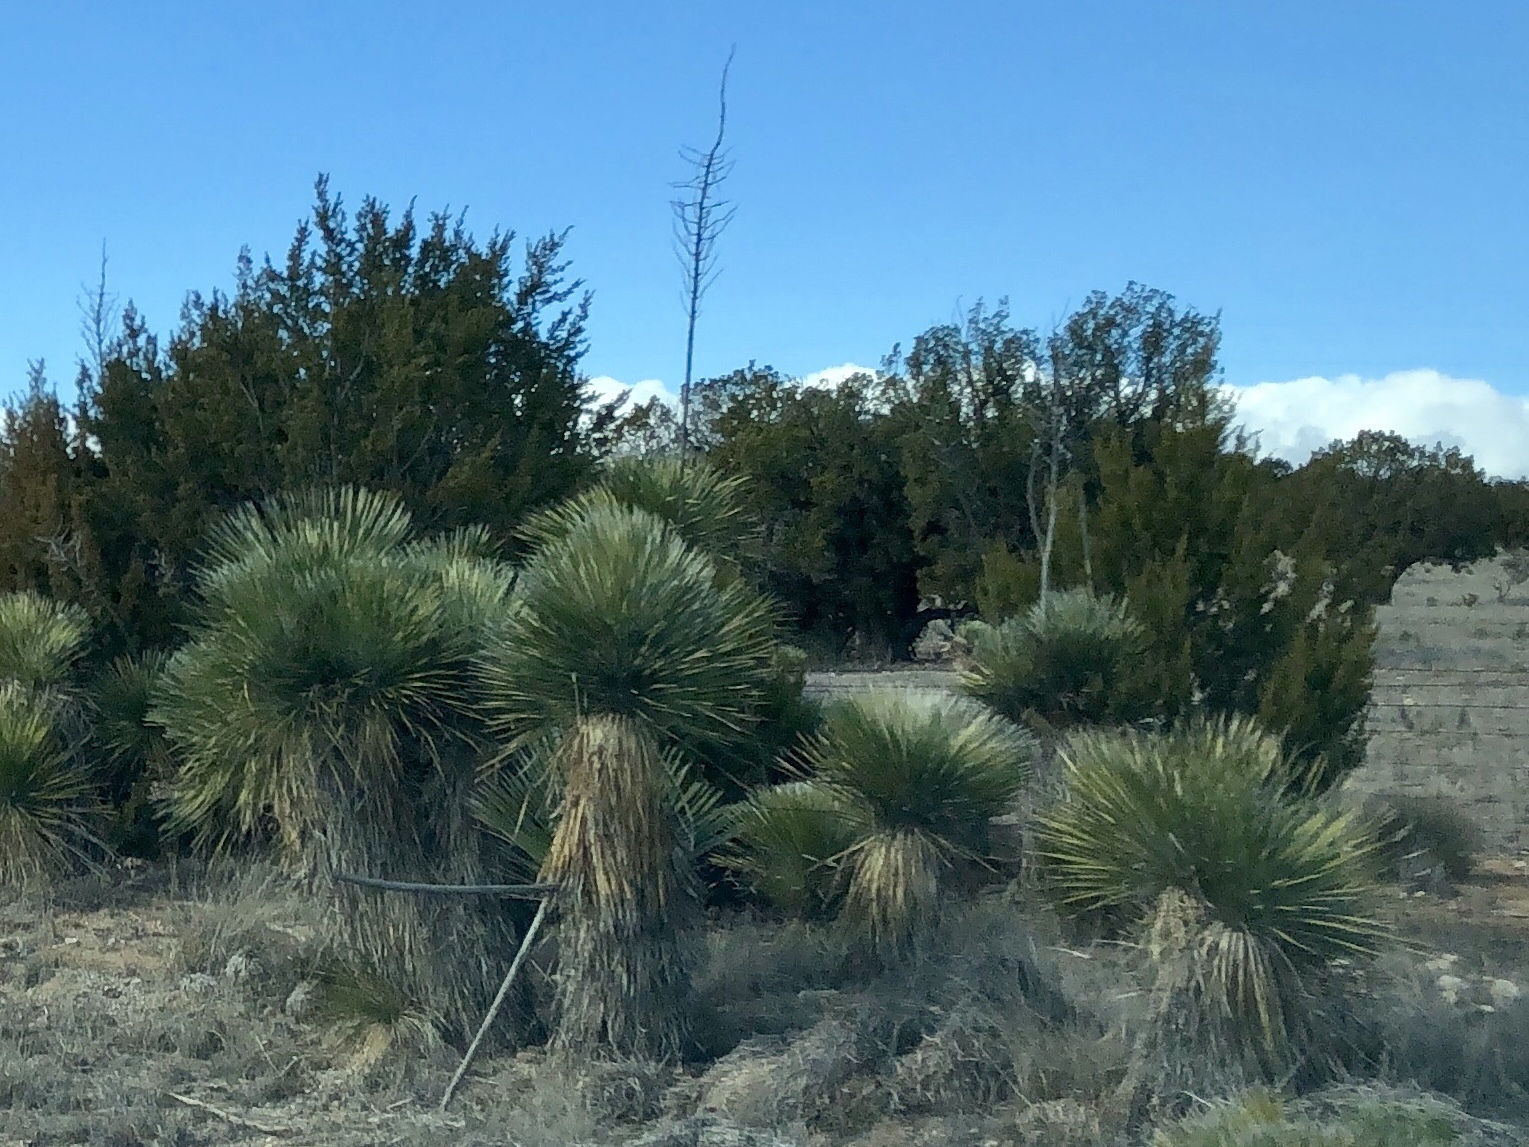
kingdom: Plantae
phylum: Tracheophyta
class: Liliopsida
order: Asparagales
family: Asparagaceae
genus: Yucca
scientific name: Yucca elata
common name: Palmella
